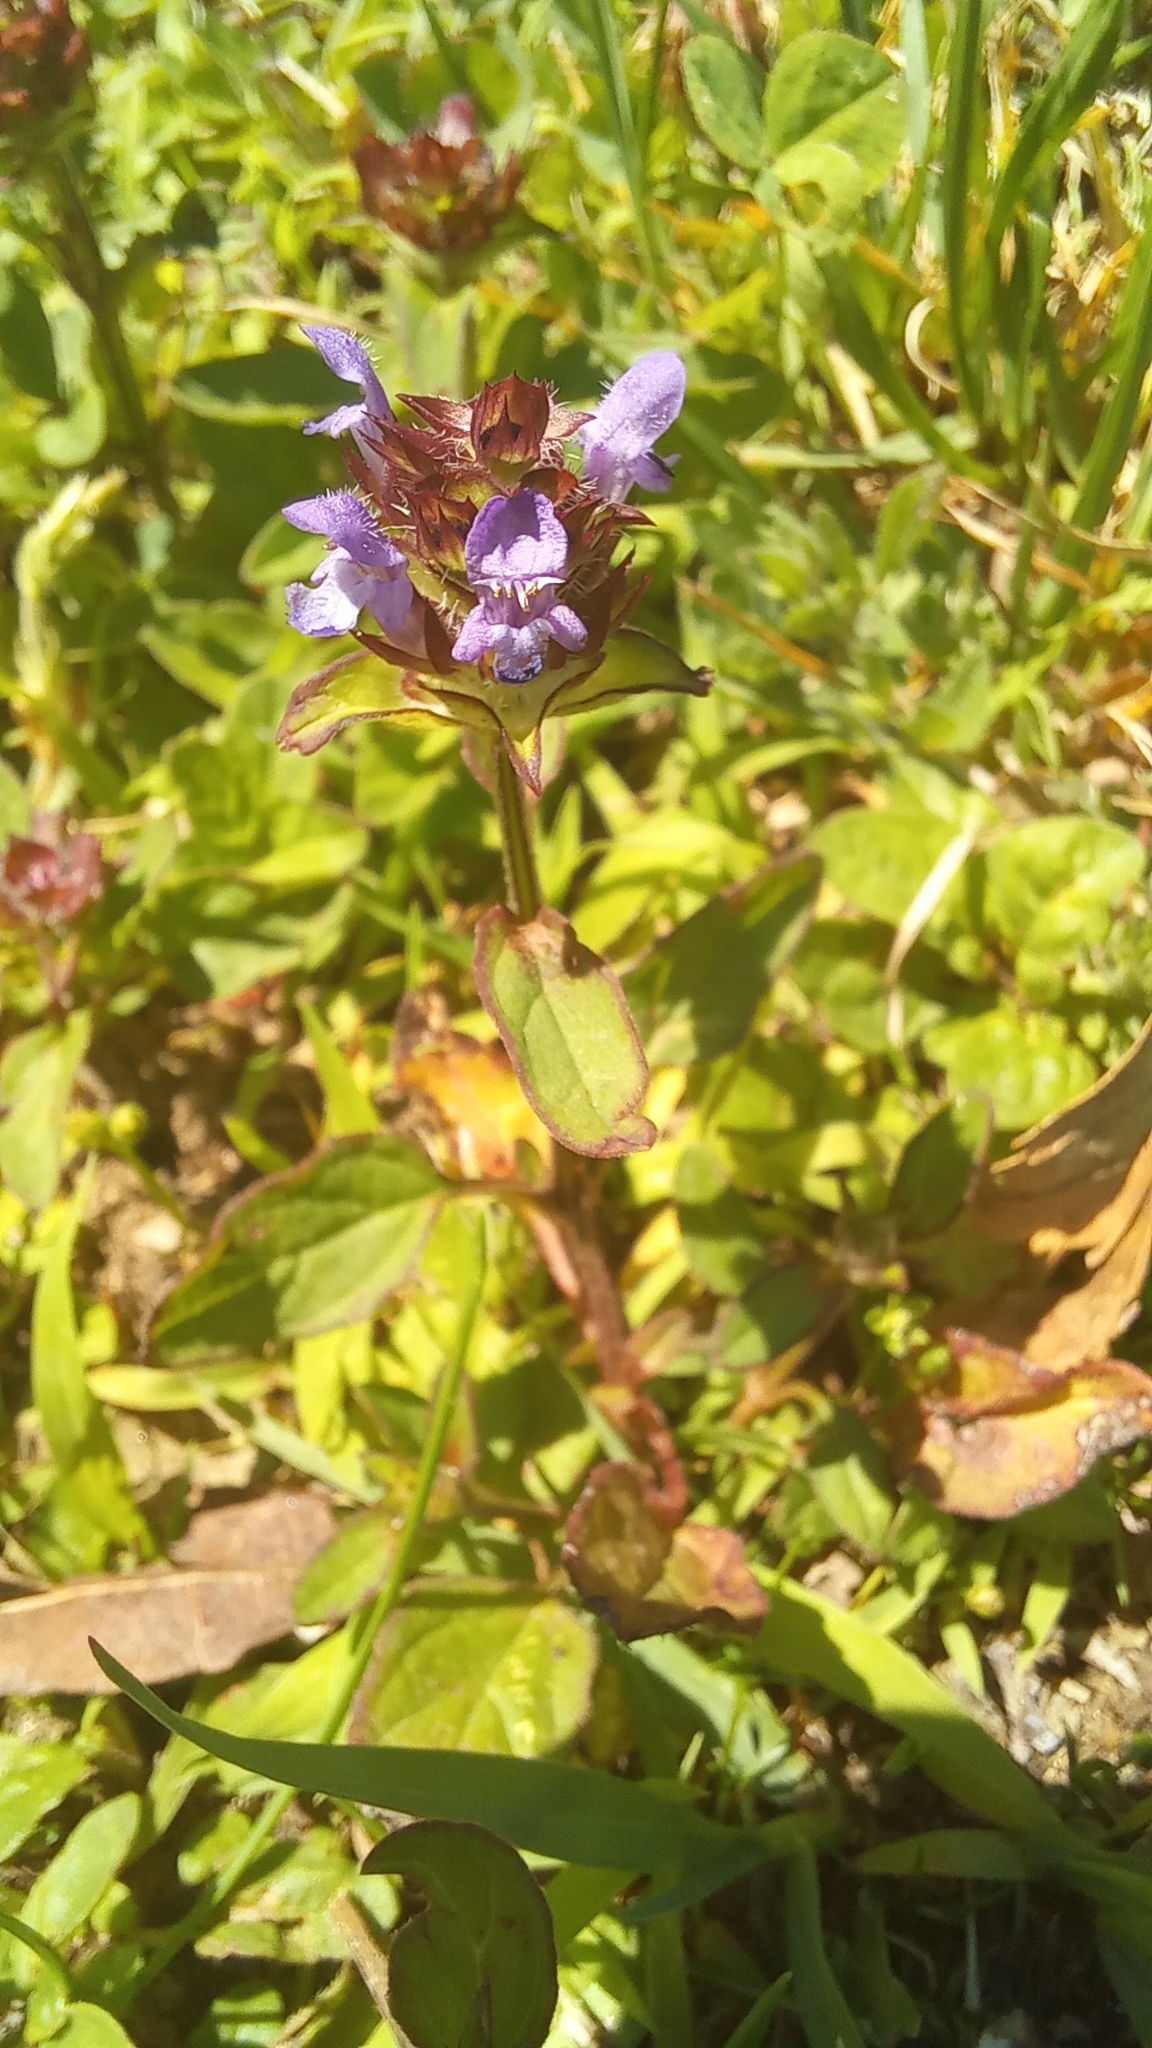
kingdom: Plantae
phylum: Tracheophyta
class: Magnoliopsida
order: Lamiales
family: Lamiaceae
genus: Prunella
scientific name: Prunella vulgaris
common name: Heal-all
